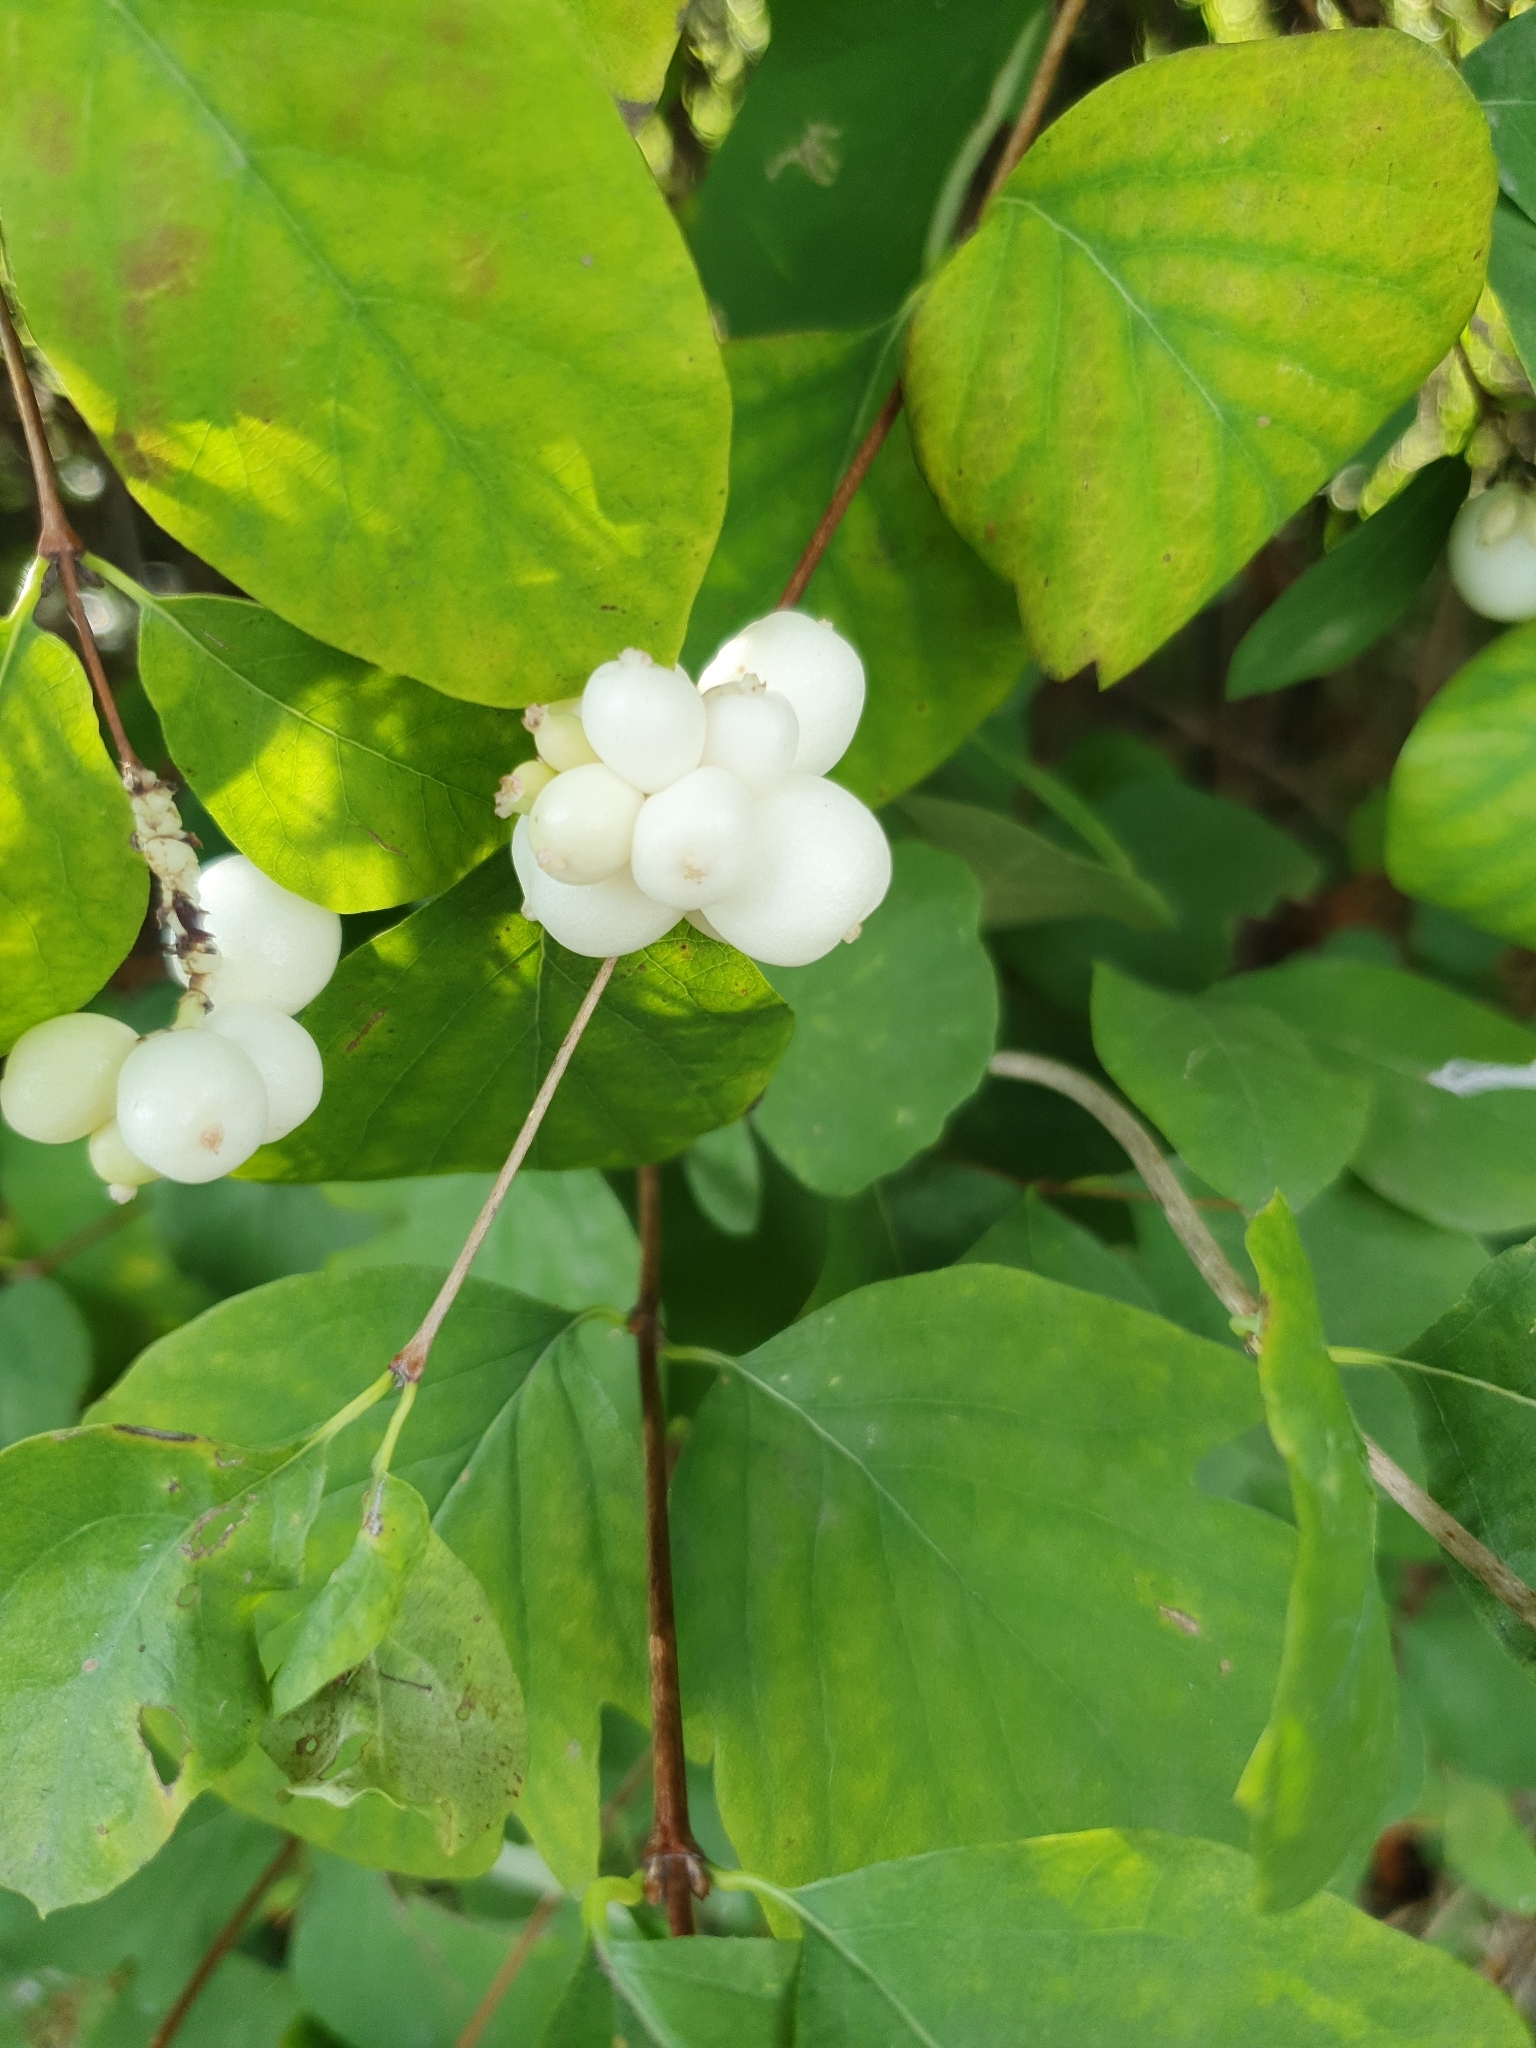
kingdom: Plantae
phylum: Tracheophyta
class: Magnoliopsida
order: Dipsacales
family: Caprifoliaceae
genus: Symphoricarpos
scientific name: Symphoricarpos albus
